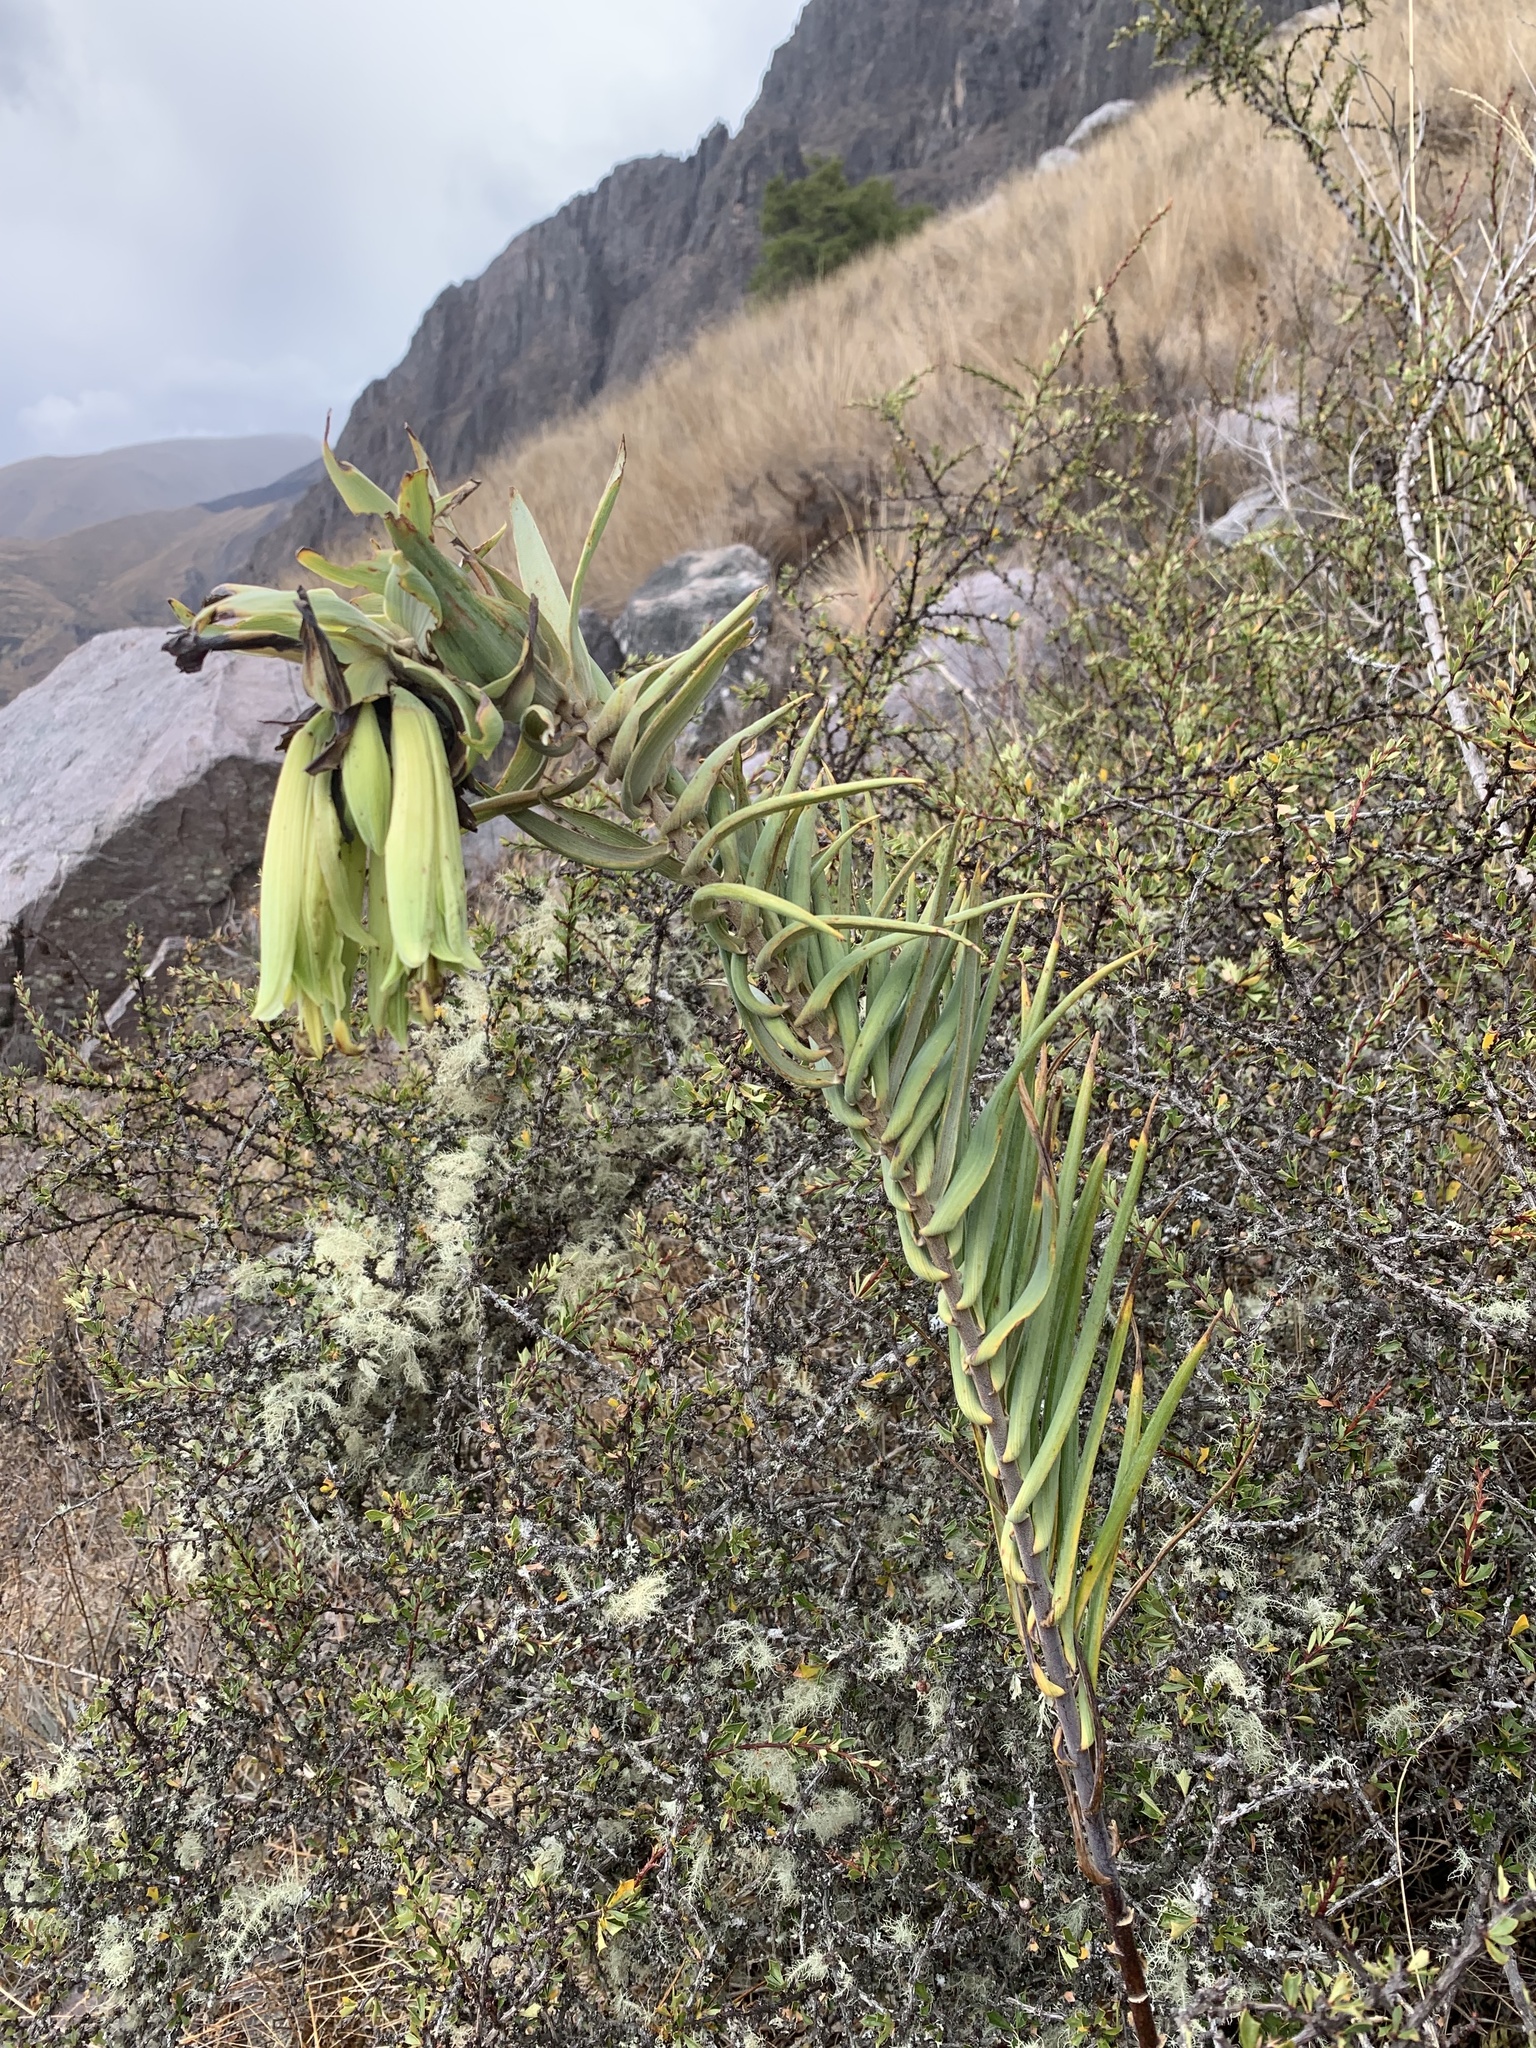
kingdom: Plantae
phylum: Tracheophyta
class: Liliopsida
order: Liliales
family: Alstroemeriaceae
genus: Bomarea
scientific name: Bomarea involucrosa
